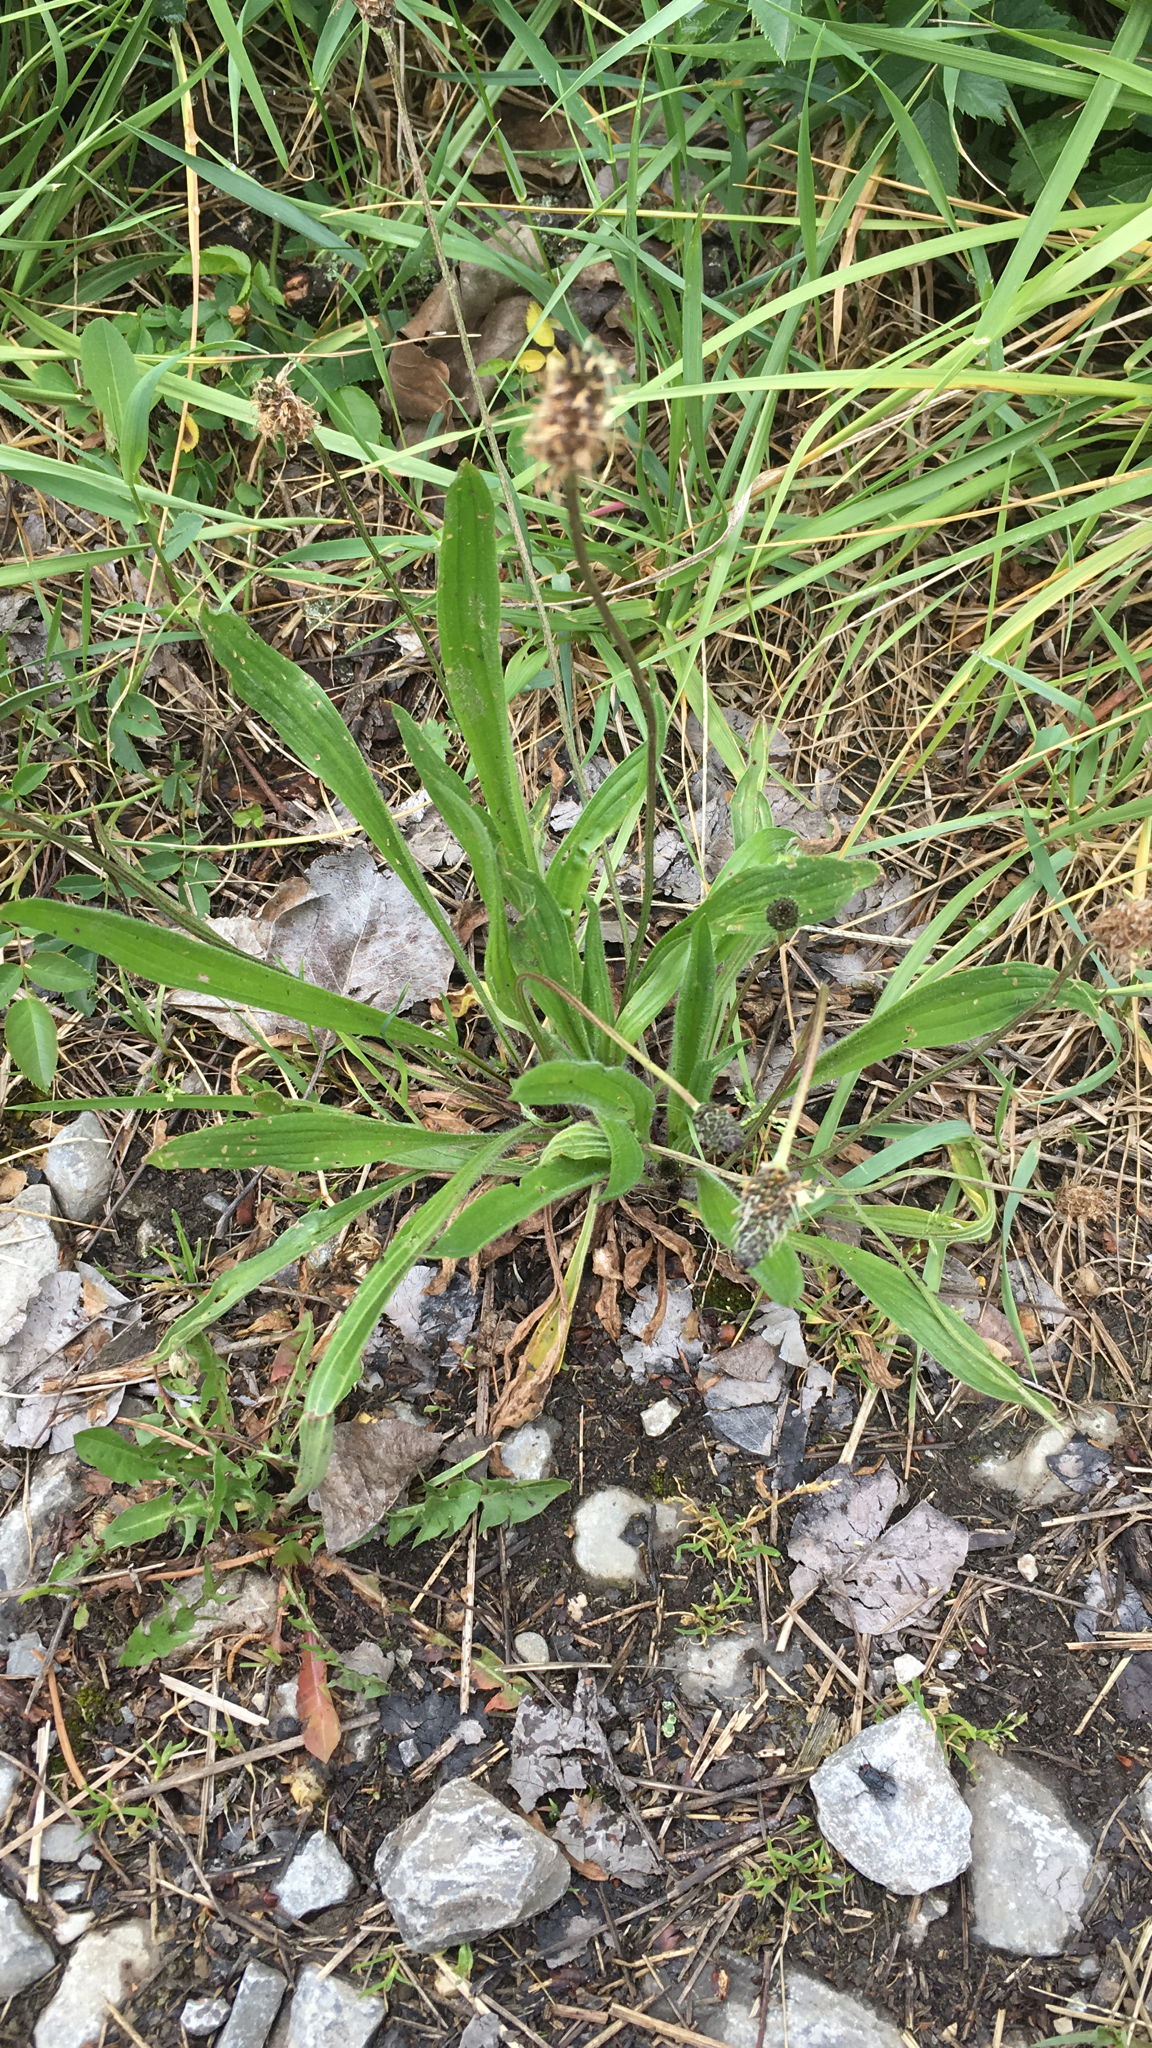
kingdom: Plantae
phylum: Tracheophyta
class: Magnoliopsida
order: Lamiales
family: Plantaginaceae
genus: Plantago
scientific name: Plantago lanceolata
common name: Ribwort plantain
